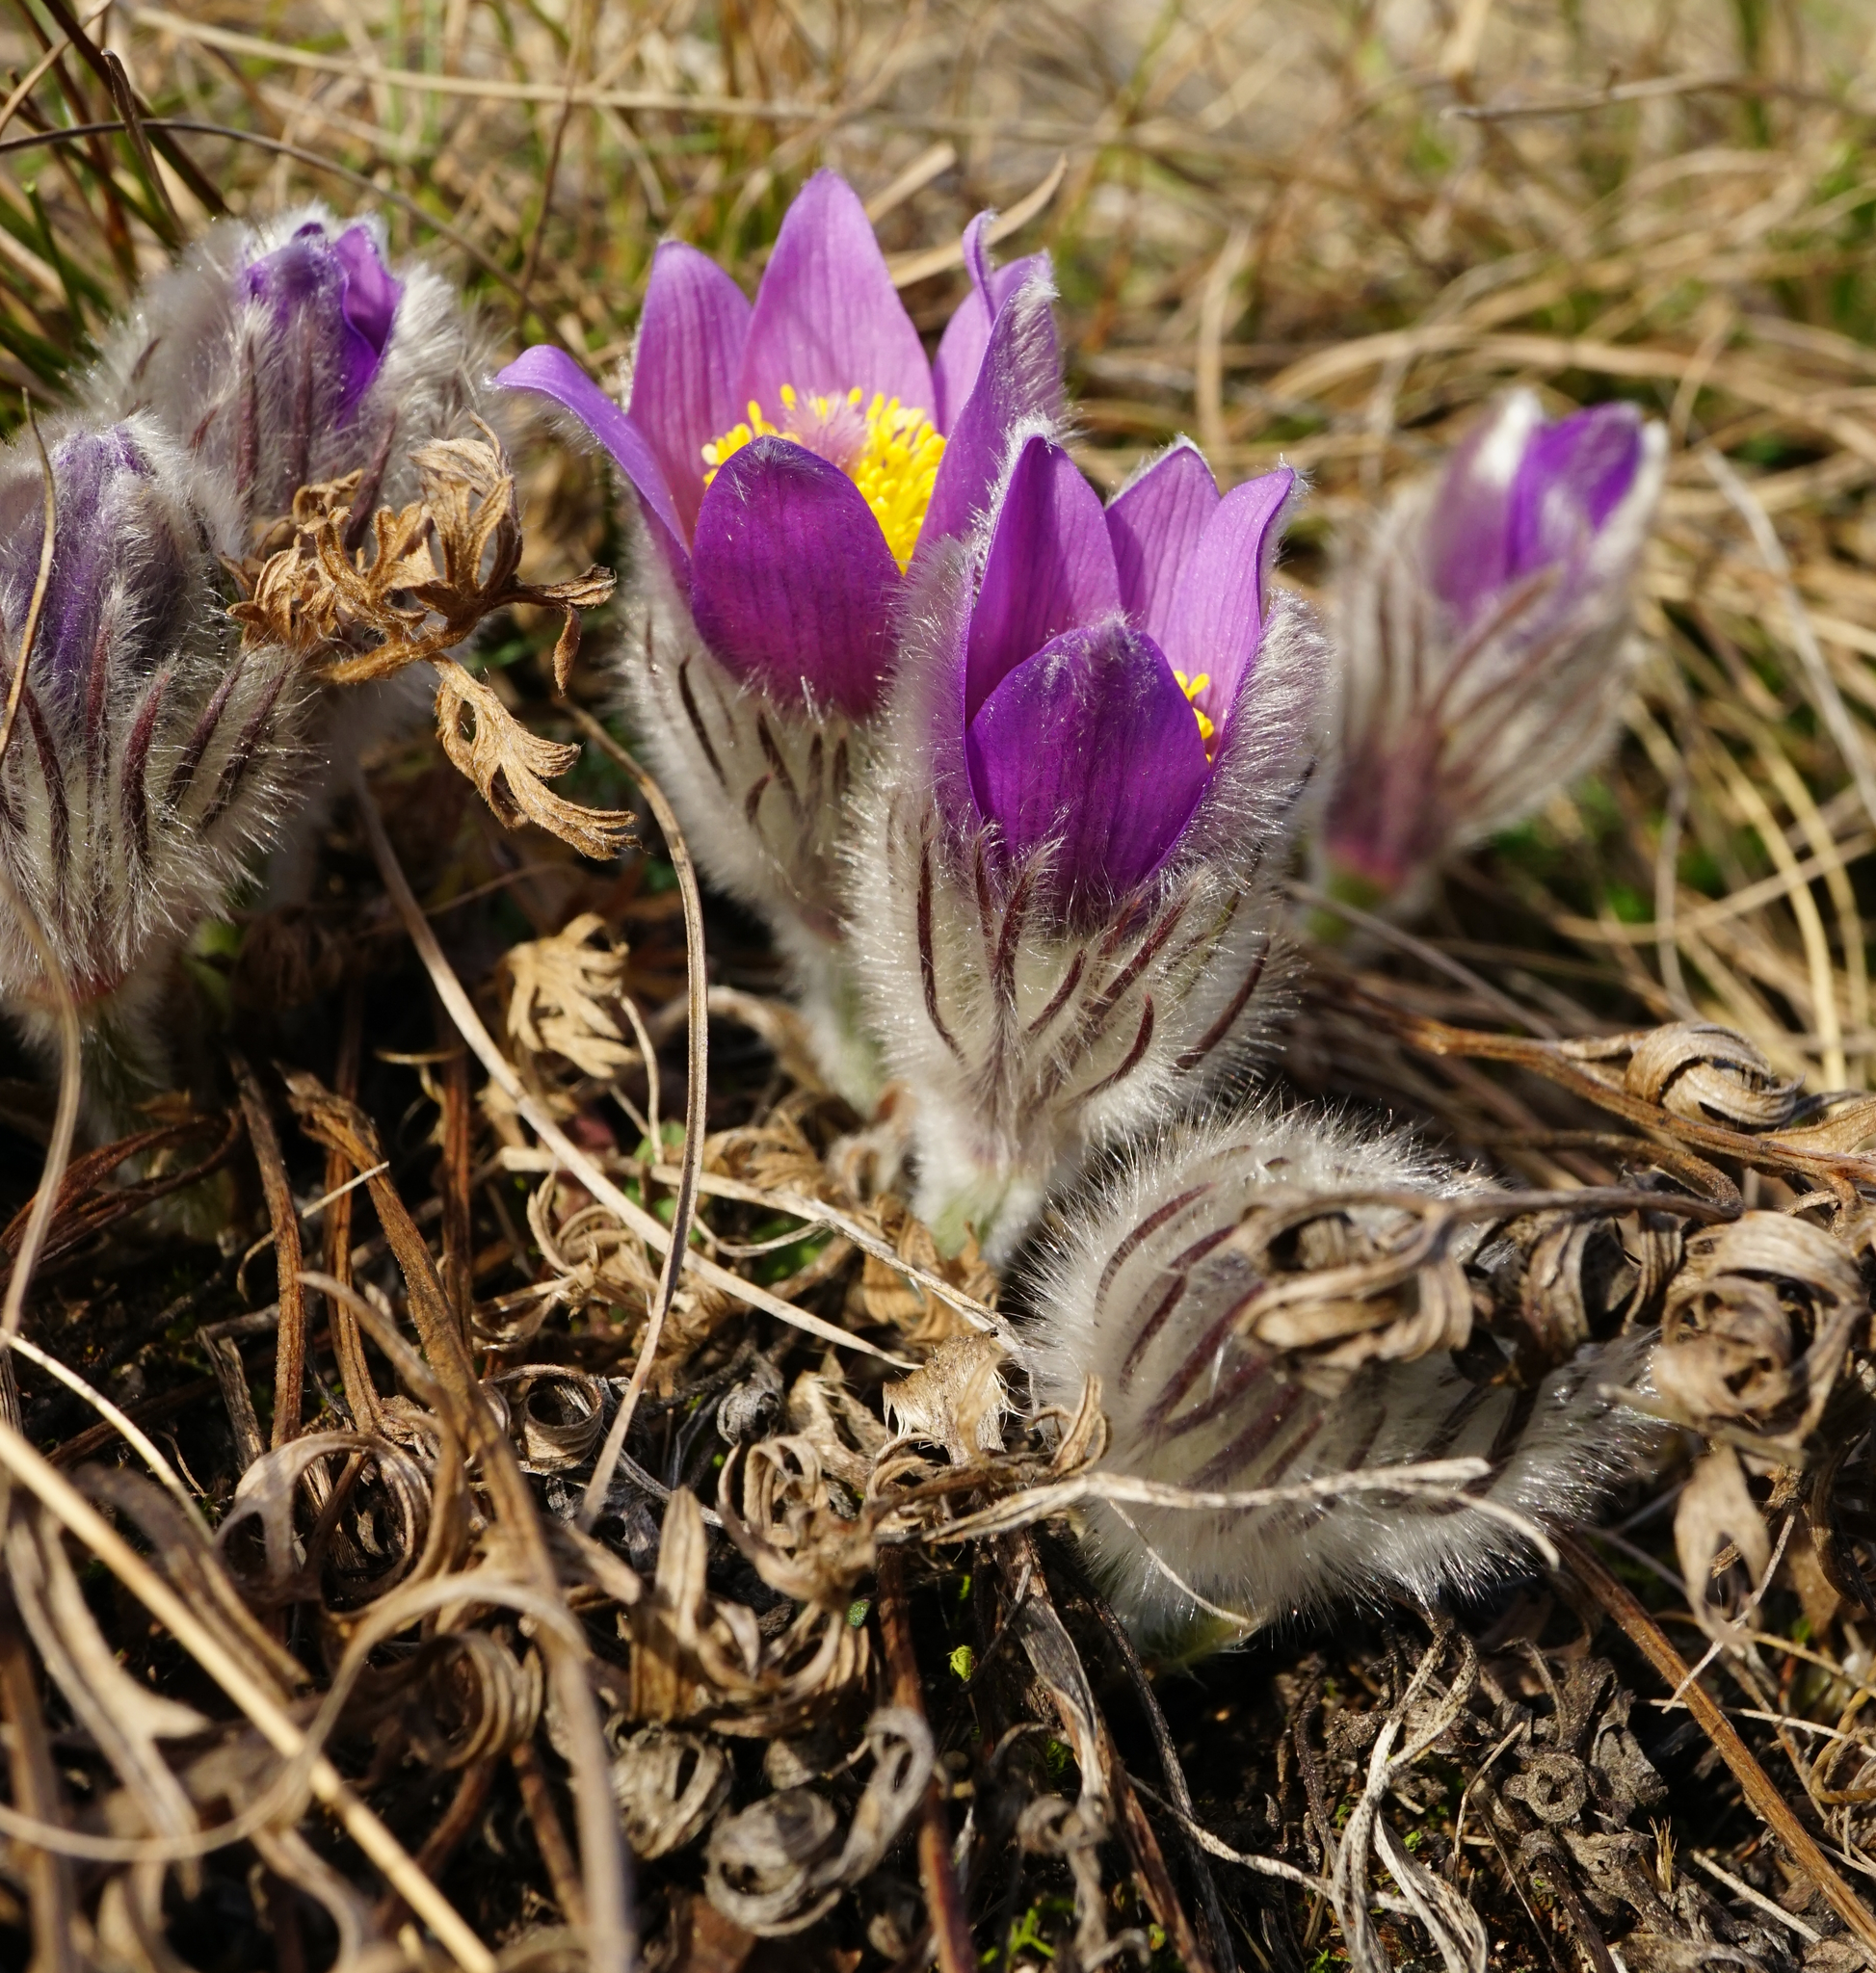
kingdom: Plantae
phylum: Tracheophyta
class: Magnoliopsida
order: Ranunculales
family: Ranunculaceae
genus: Pulsatilla
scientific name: Pulsatilla grandis
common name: Greater pasque flower
